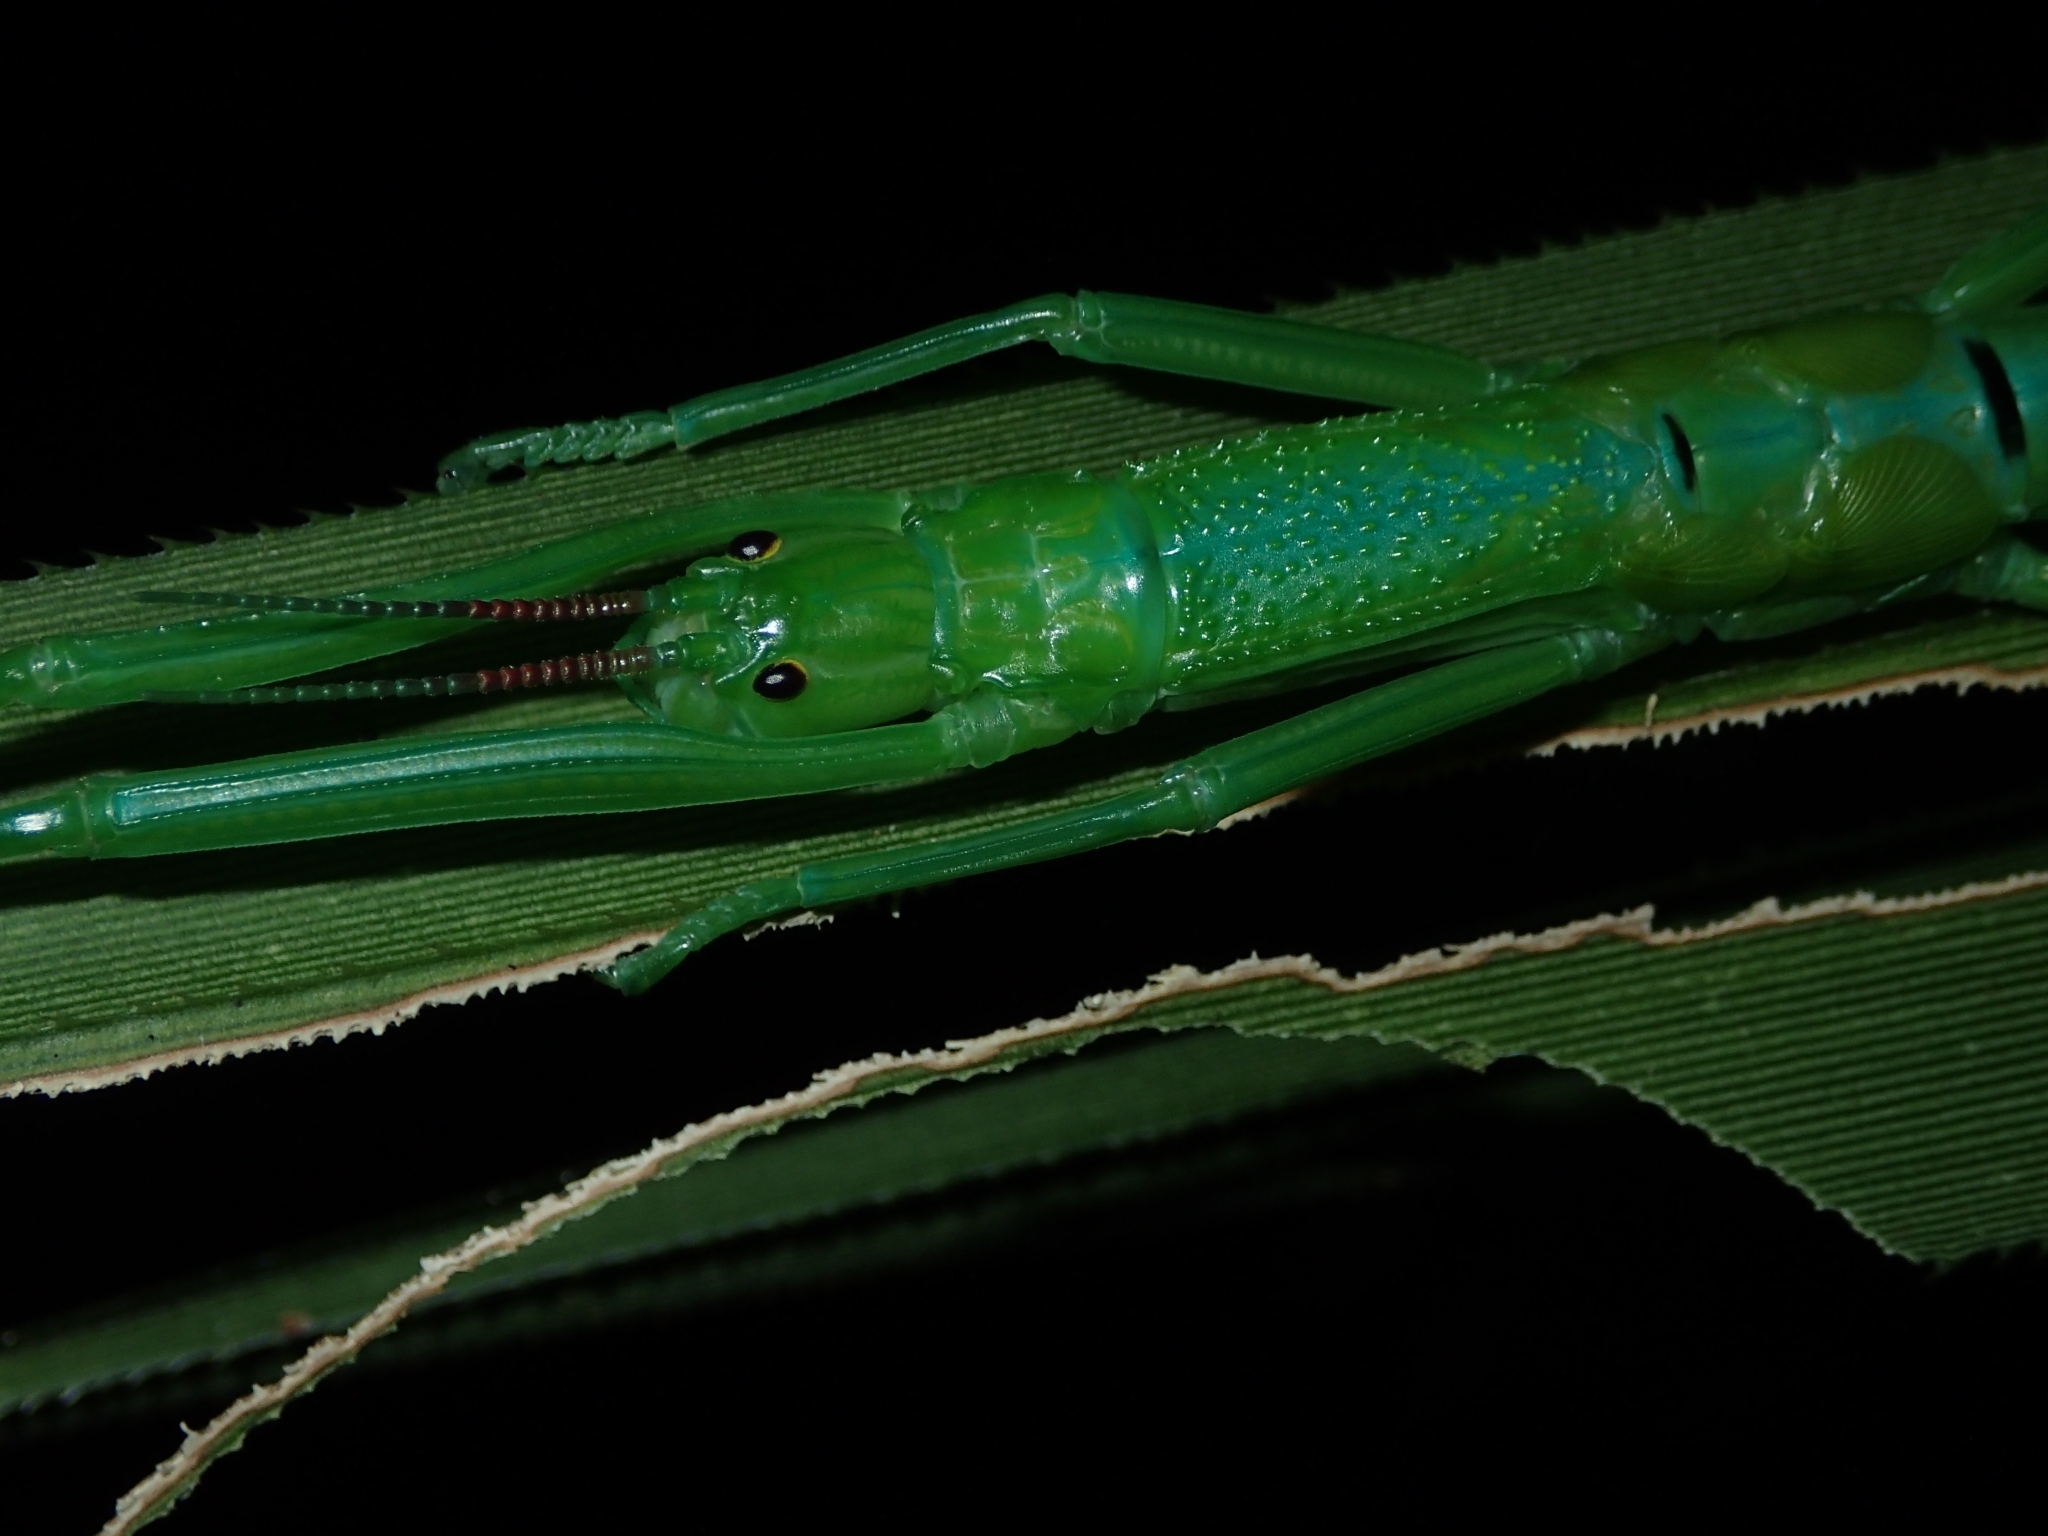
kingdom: Animalia
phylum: Arthropoda
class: Insecta
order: Phasmida
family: Phasmatidae
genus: Megacrania
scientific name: Megacrania batesii
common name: Peppermint stick-insect
